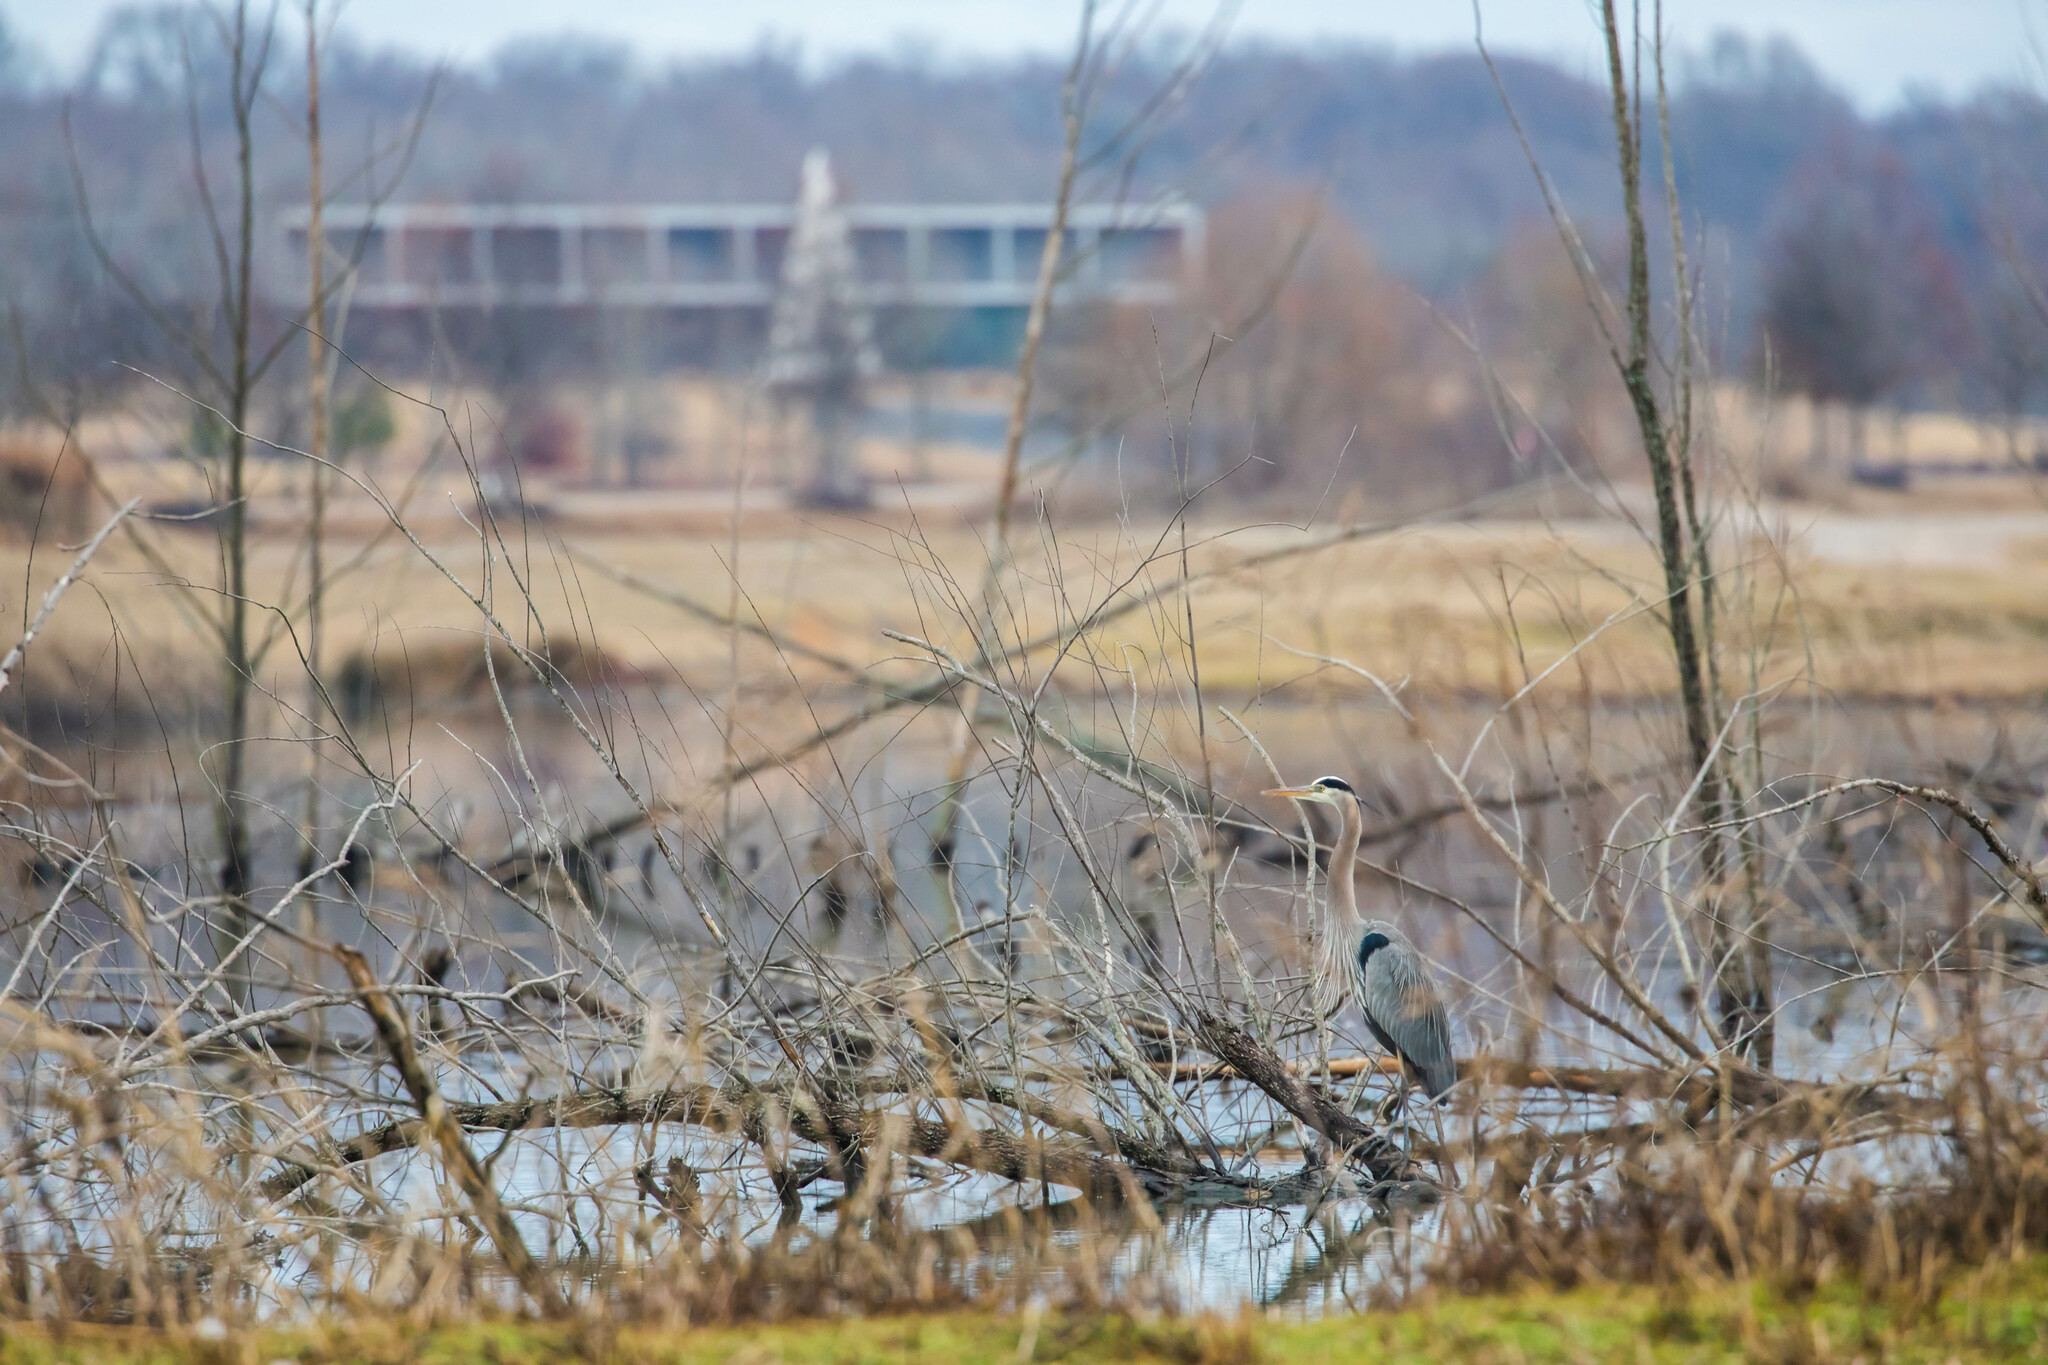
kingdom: Animalia
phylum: Chordata
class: Aves
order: Pelecaniformes
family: Ardeidae
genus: Ardea
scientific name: Ardea herodias
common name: Great blue heron
